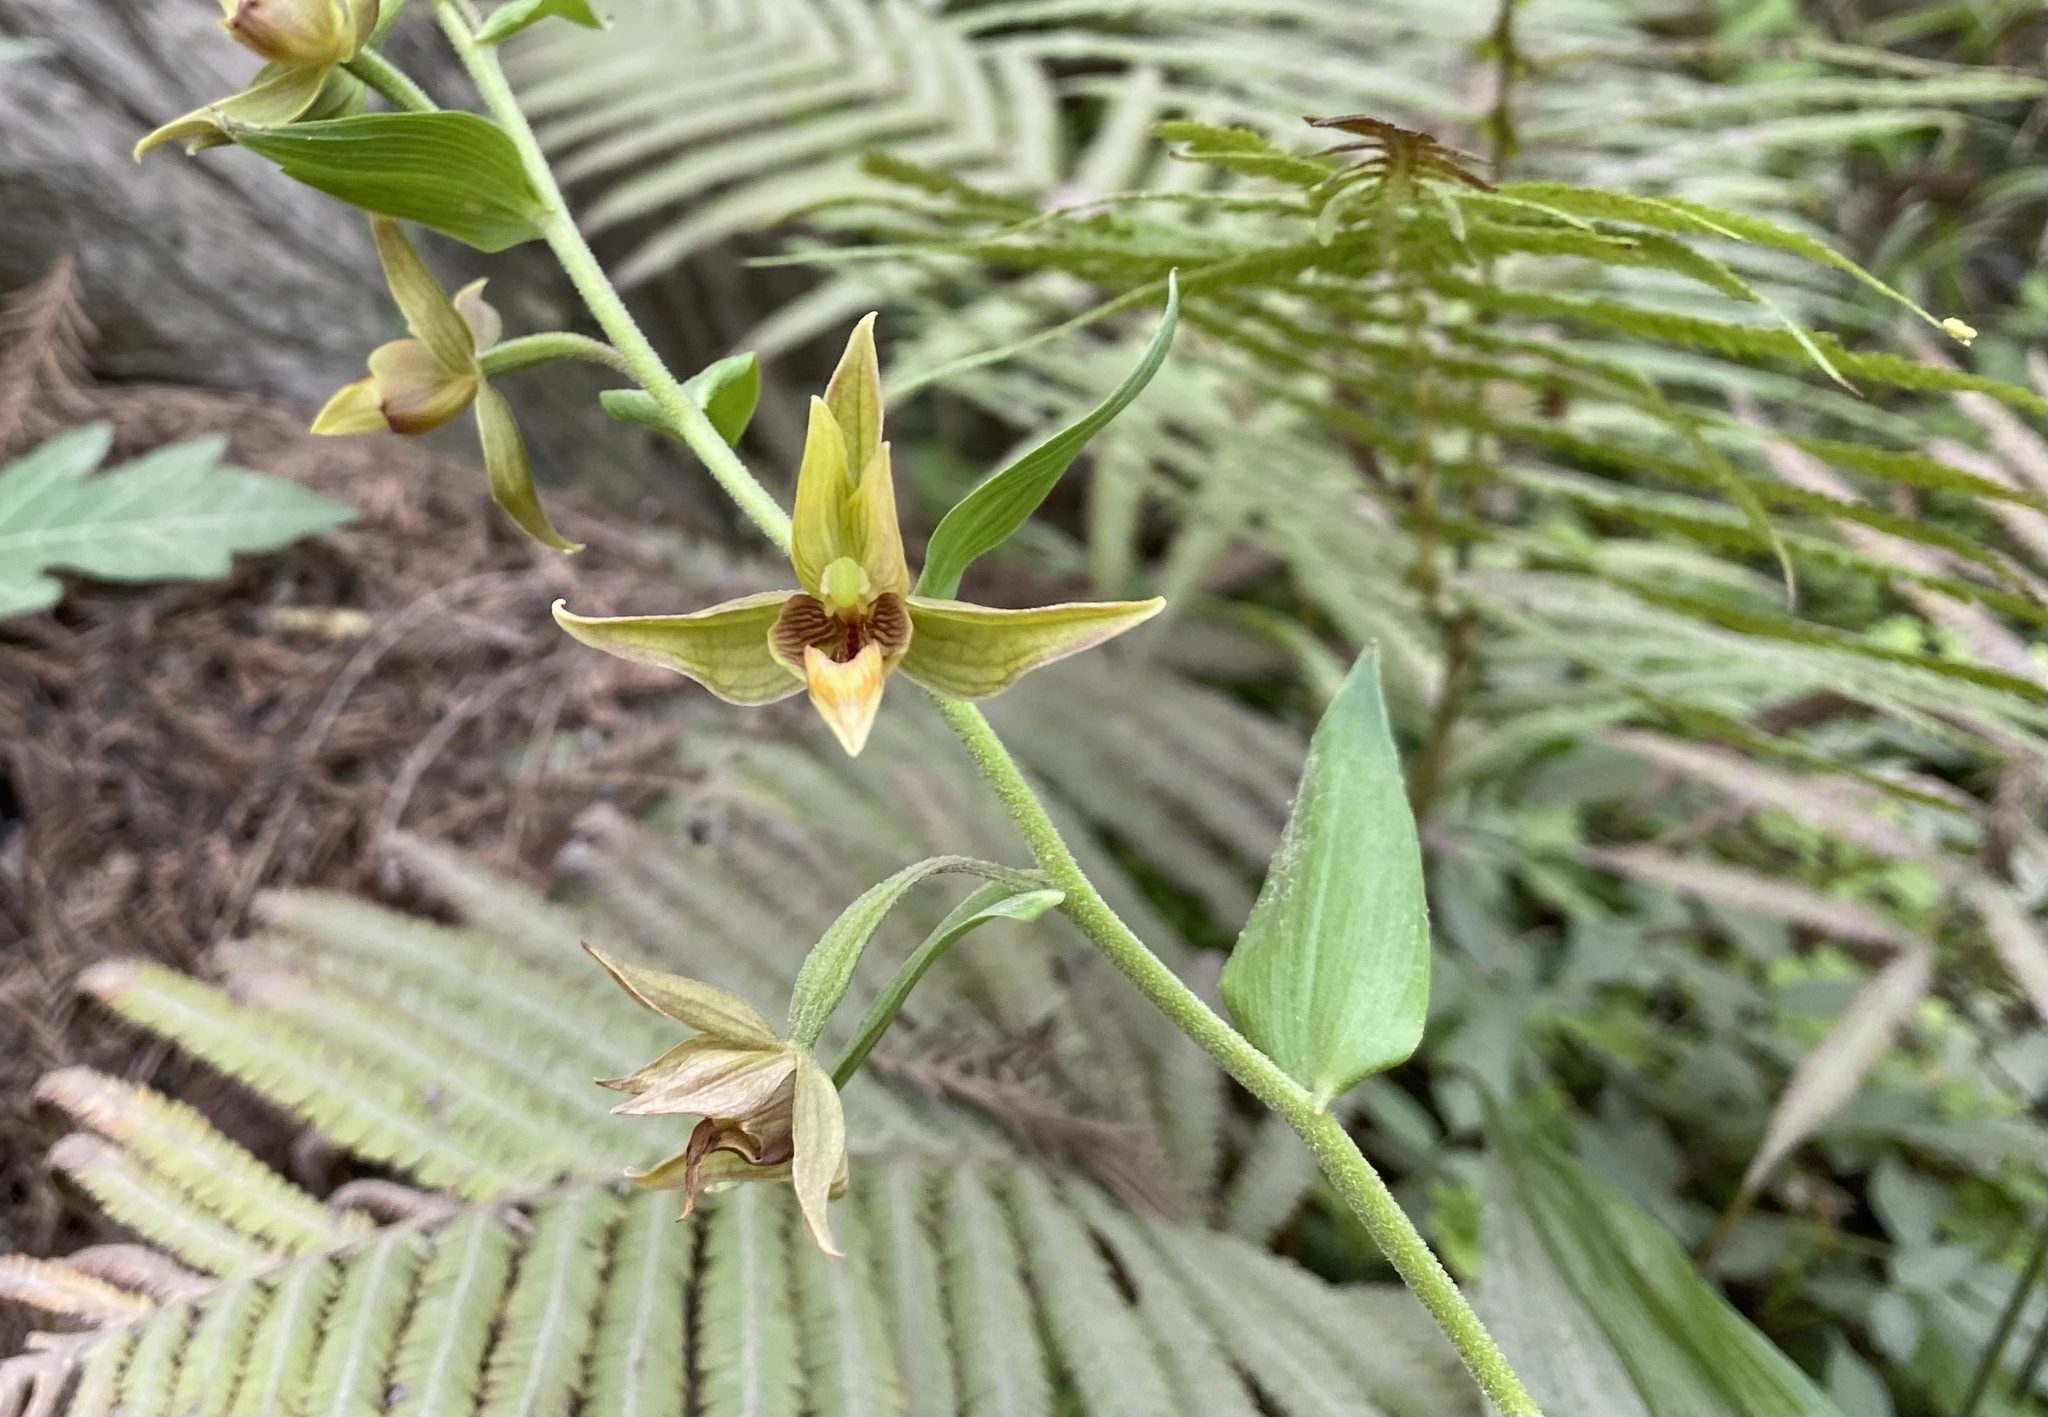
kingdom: Plantae
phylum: Tracheophyta
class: Liliopsida
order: Asparagales
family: Orchidaceae
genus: Epipactis
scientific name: Epipactis gigantea
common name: Chatterbox
